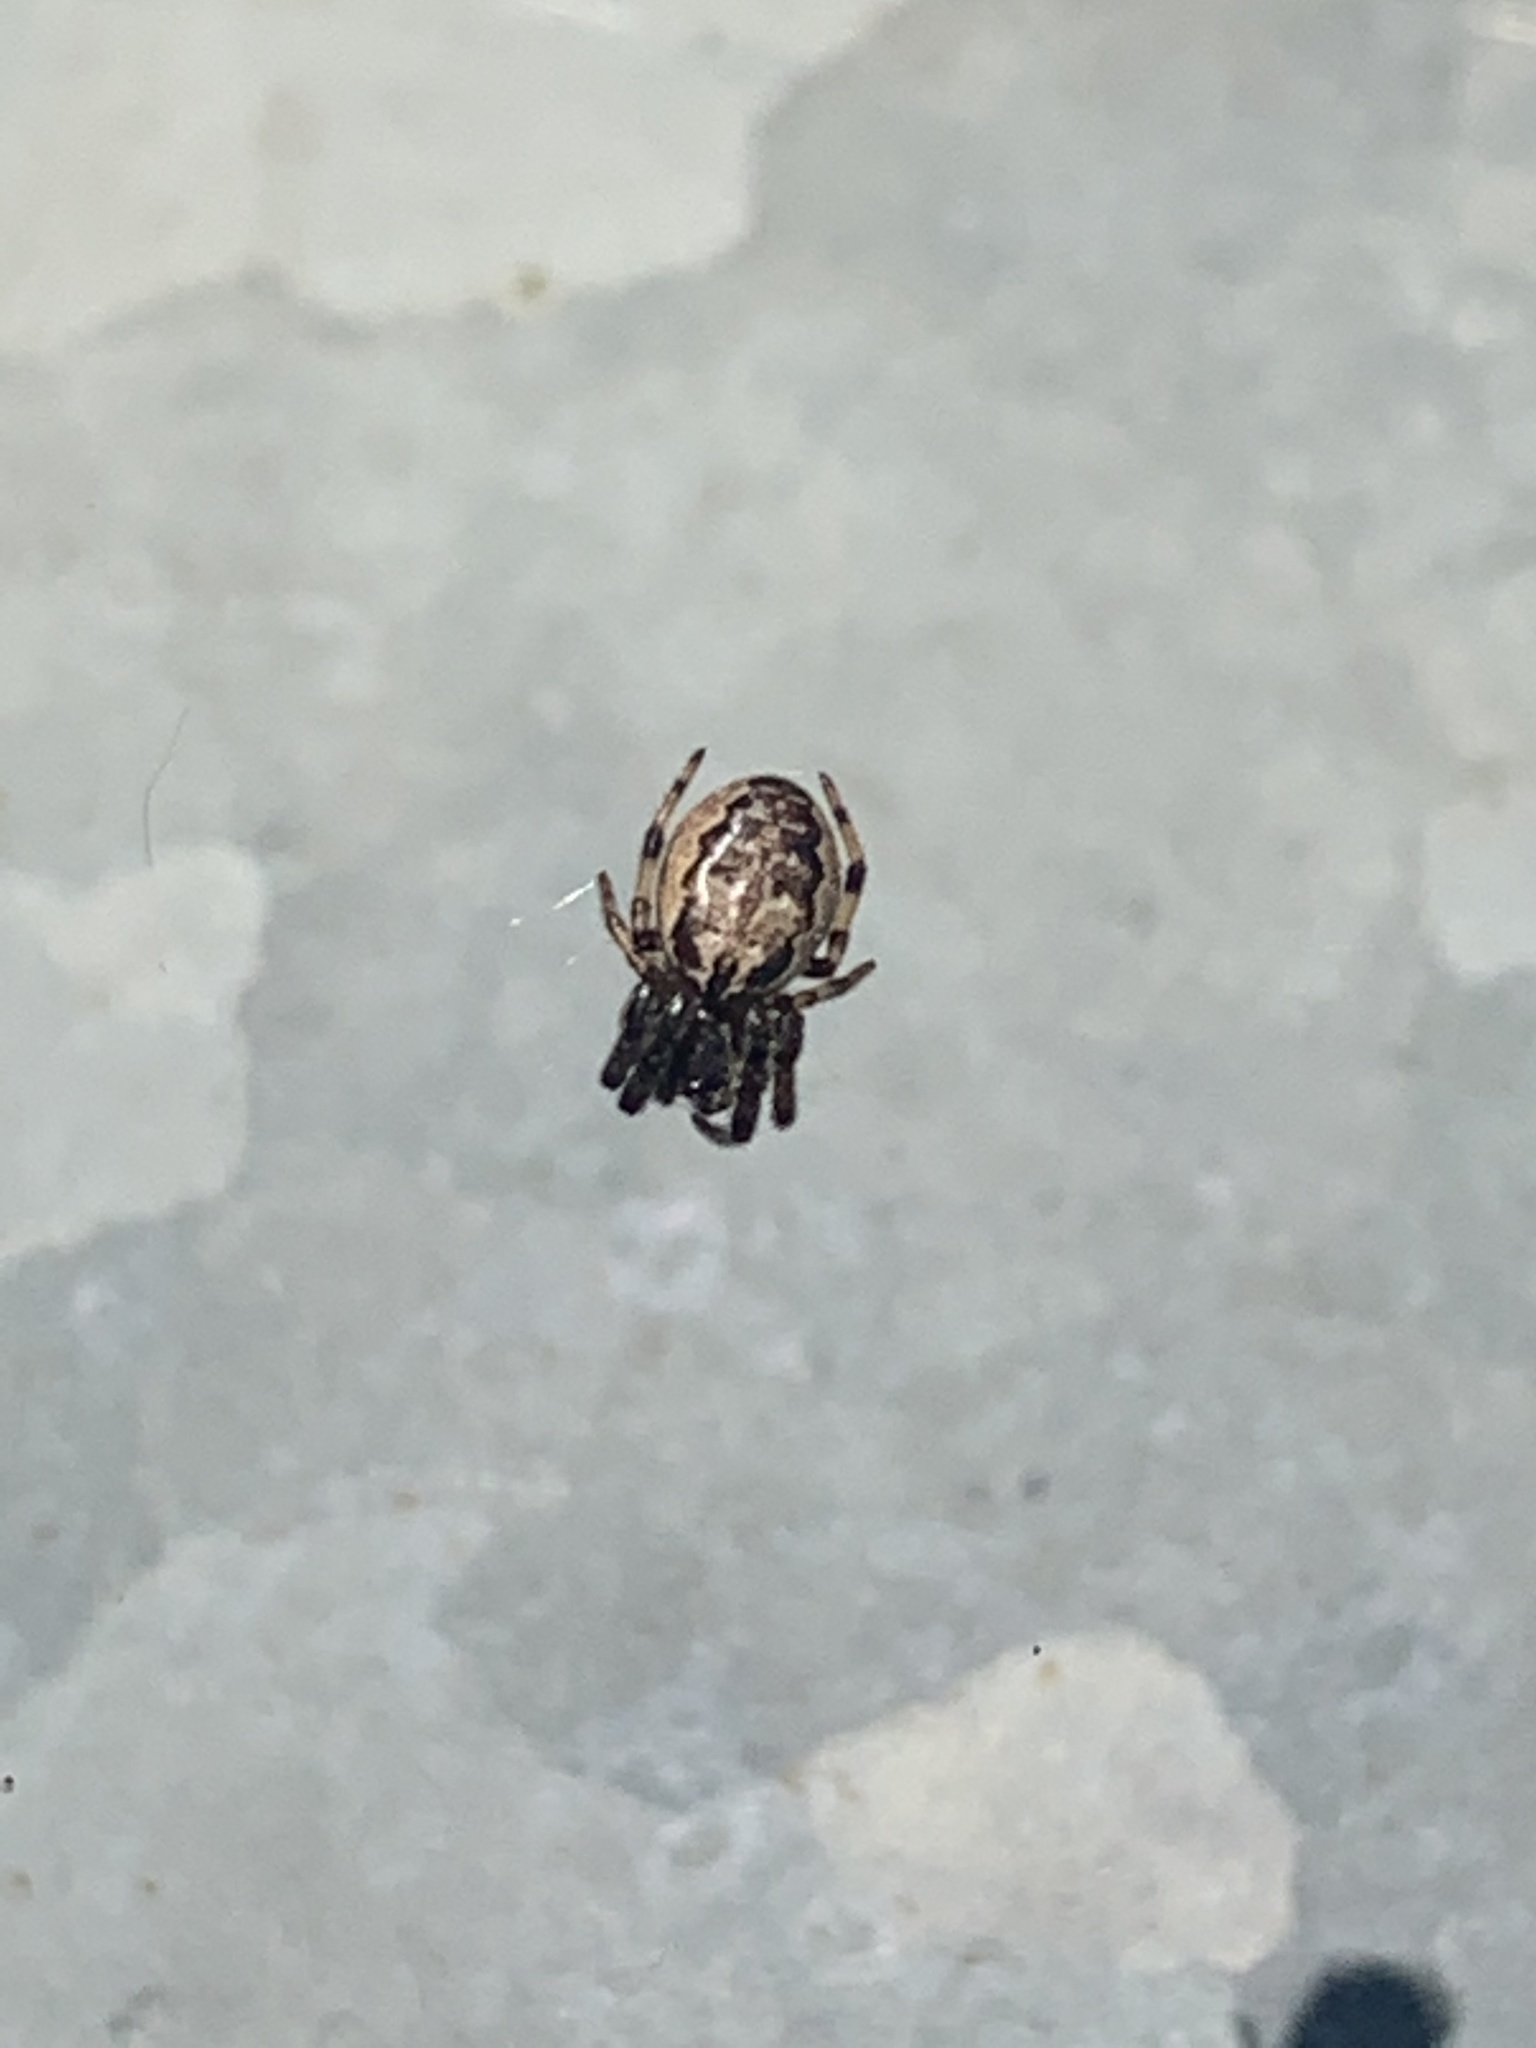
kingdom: Animalia
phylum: Arthropoda
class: Arachnida
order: Araneae
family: Araneidae
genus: Larinioides
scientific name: Larinioides cornutus
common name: Furrow orbweaver
